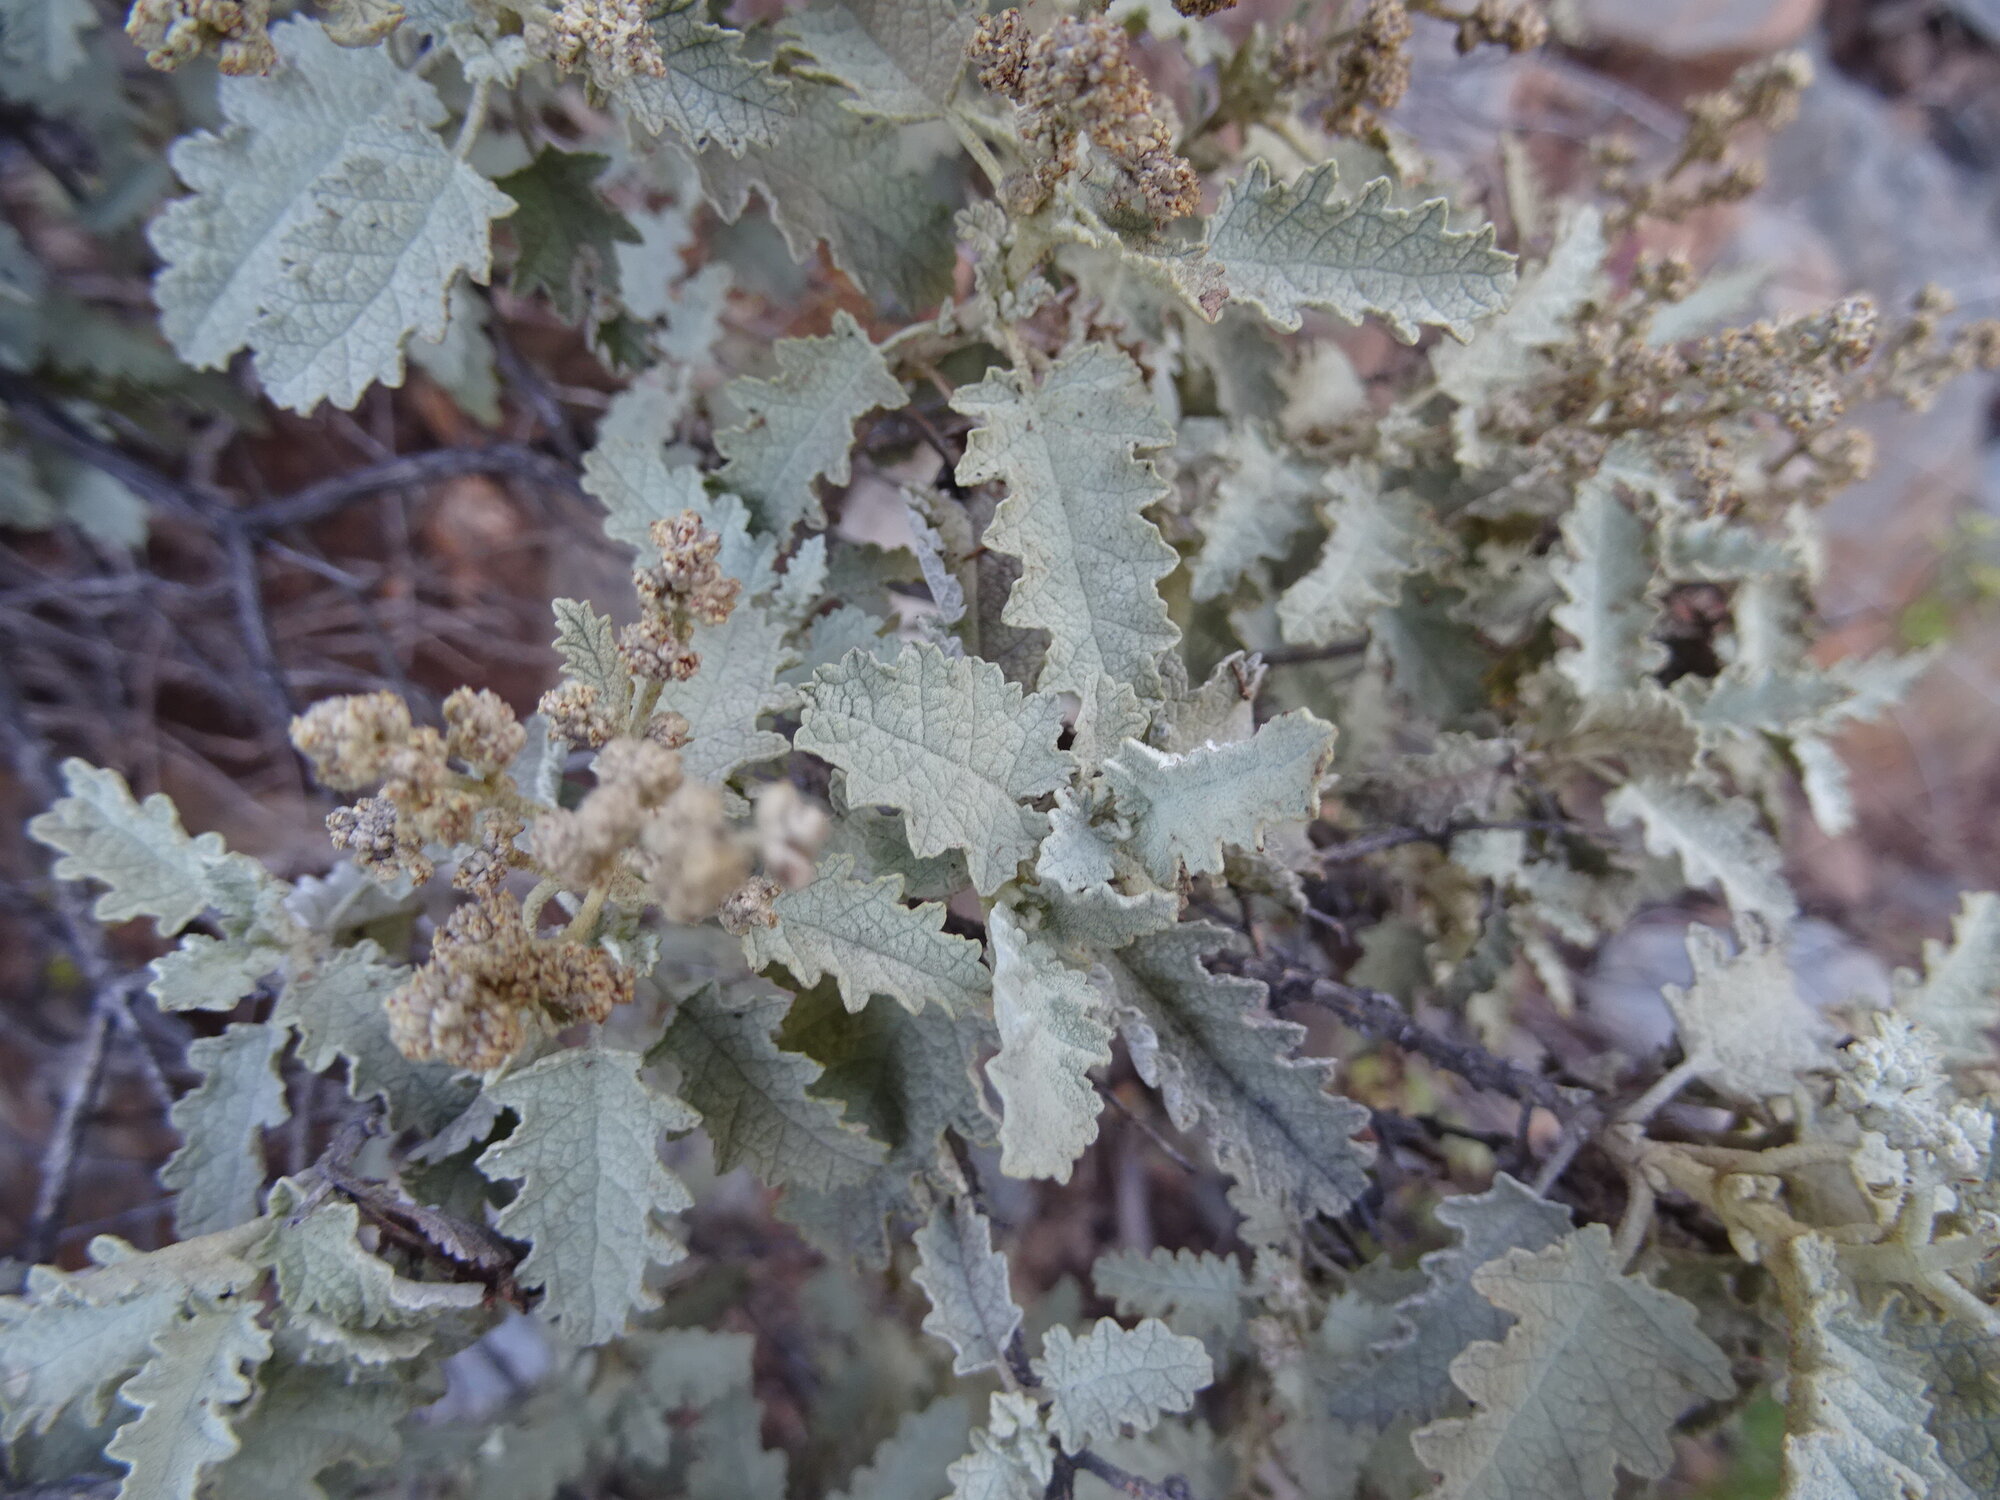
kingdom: Plantae
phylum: Tracheophyta
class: Magnoliopsida
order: Lamiales
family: Scrophulariaceae
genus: Buddleja
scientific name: Buddleja glomerata
